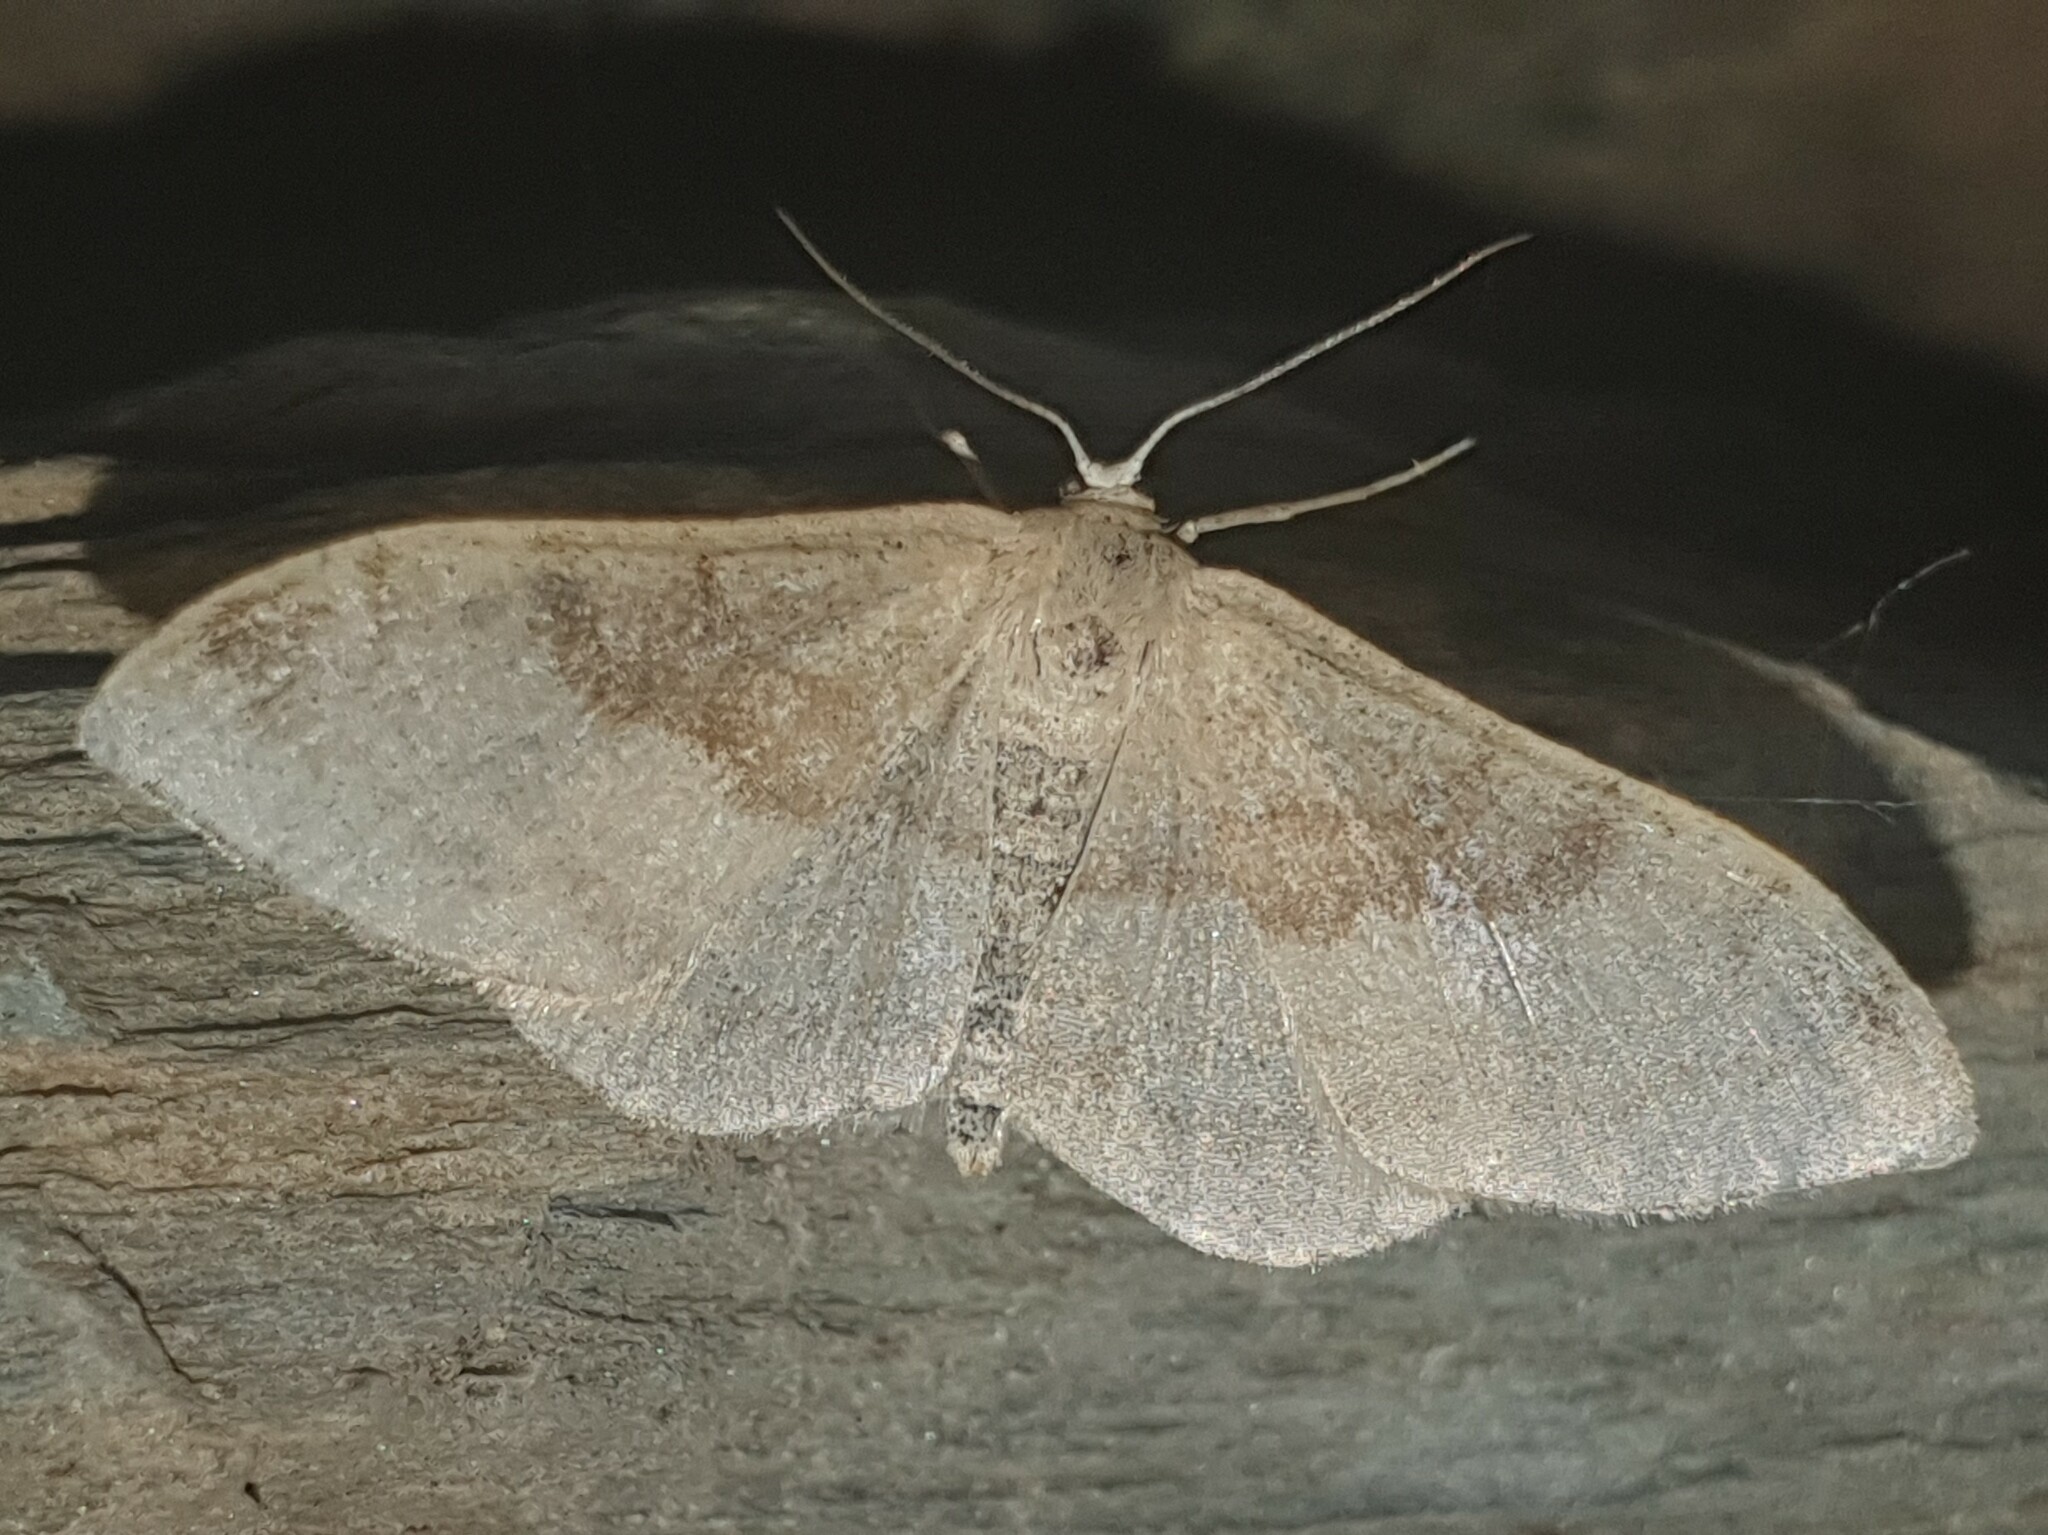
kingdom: Animalia
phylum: Arthropoda
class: Insecta
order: Lepidoptera
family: Geometridae
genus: Idaea
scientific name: Idaea degeneraria
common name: Portland ribbon wave
